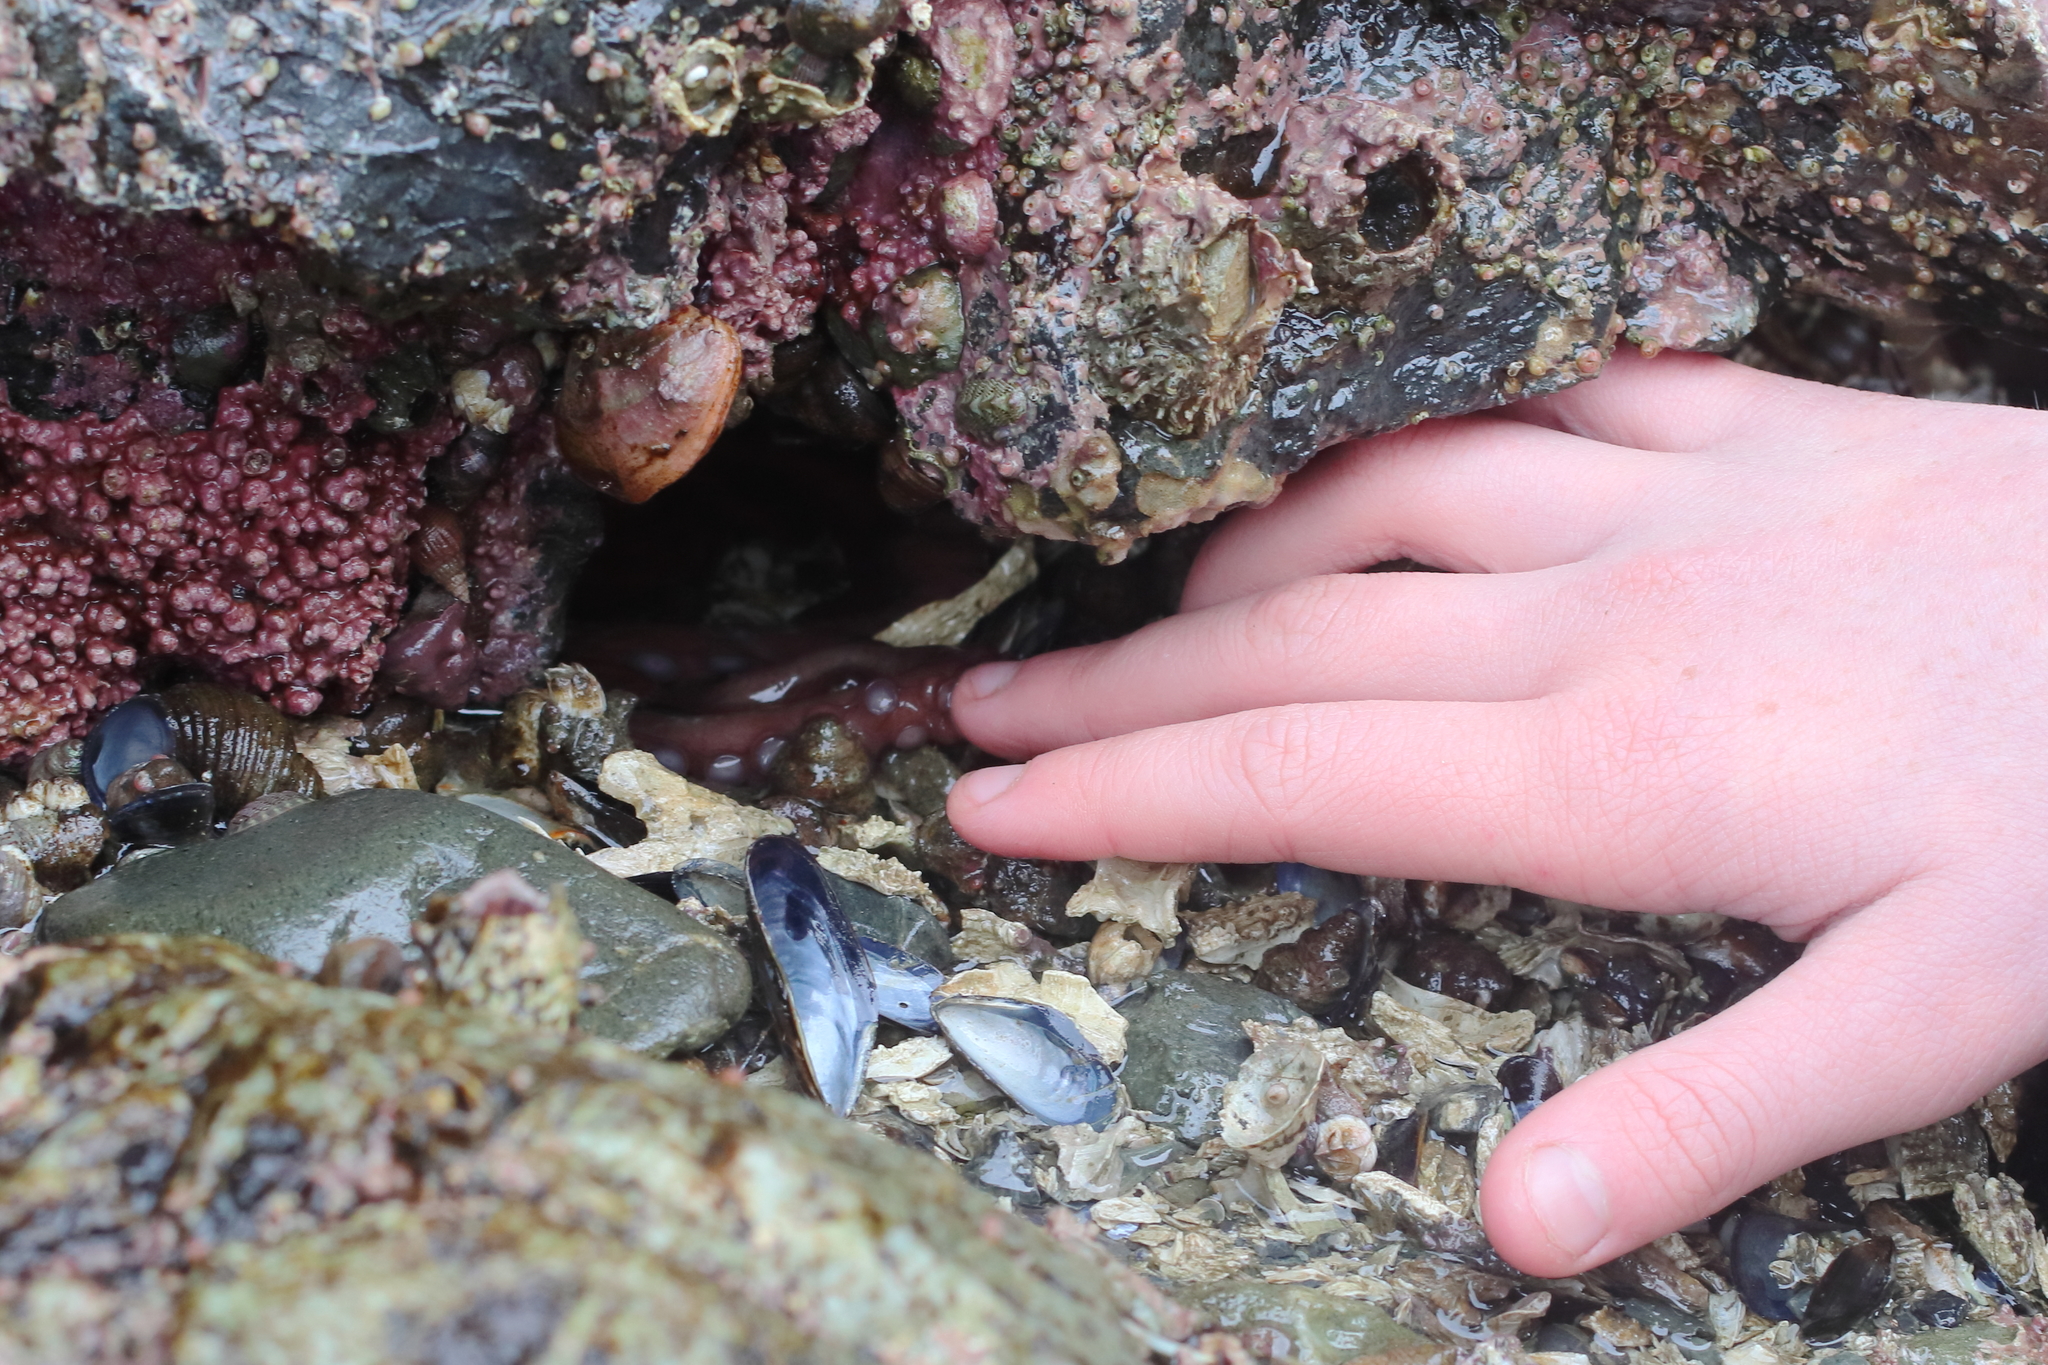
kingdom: Animalia
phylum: Mollusca
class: Cephalopoda
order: Octopoda
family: Enteroctopodidae
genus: Enteroctopus
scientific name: Enteroctopus dofleini
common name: Giant north pacific octopus
